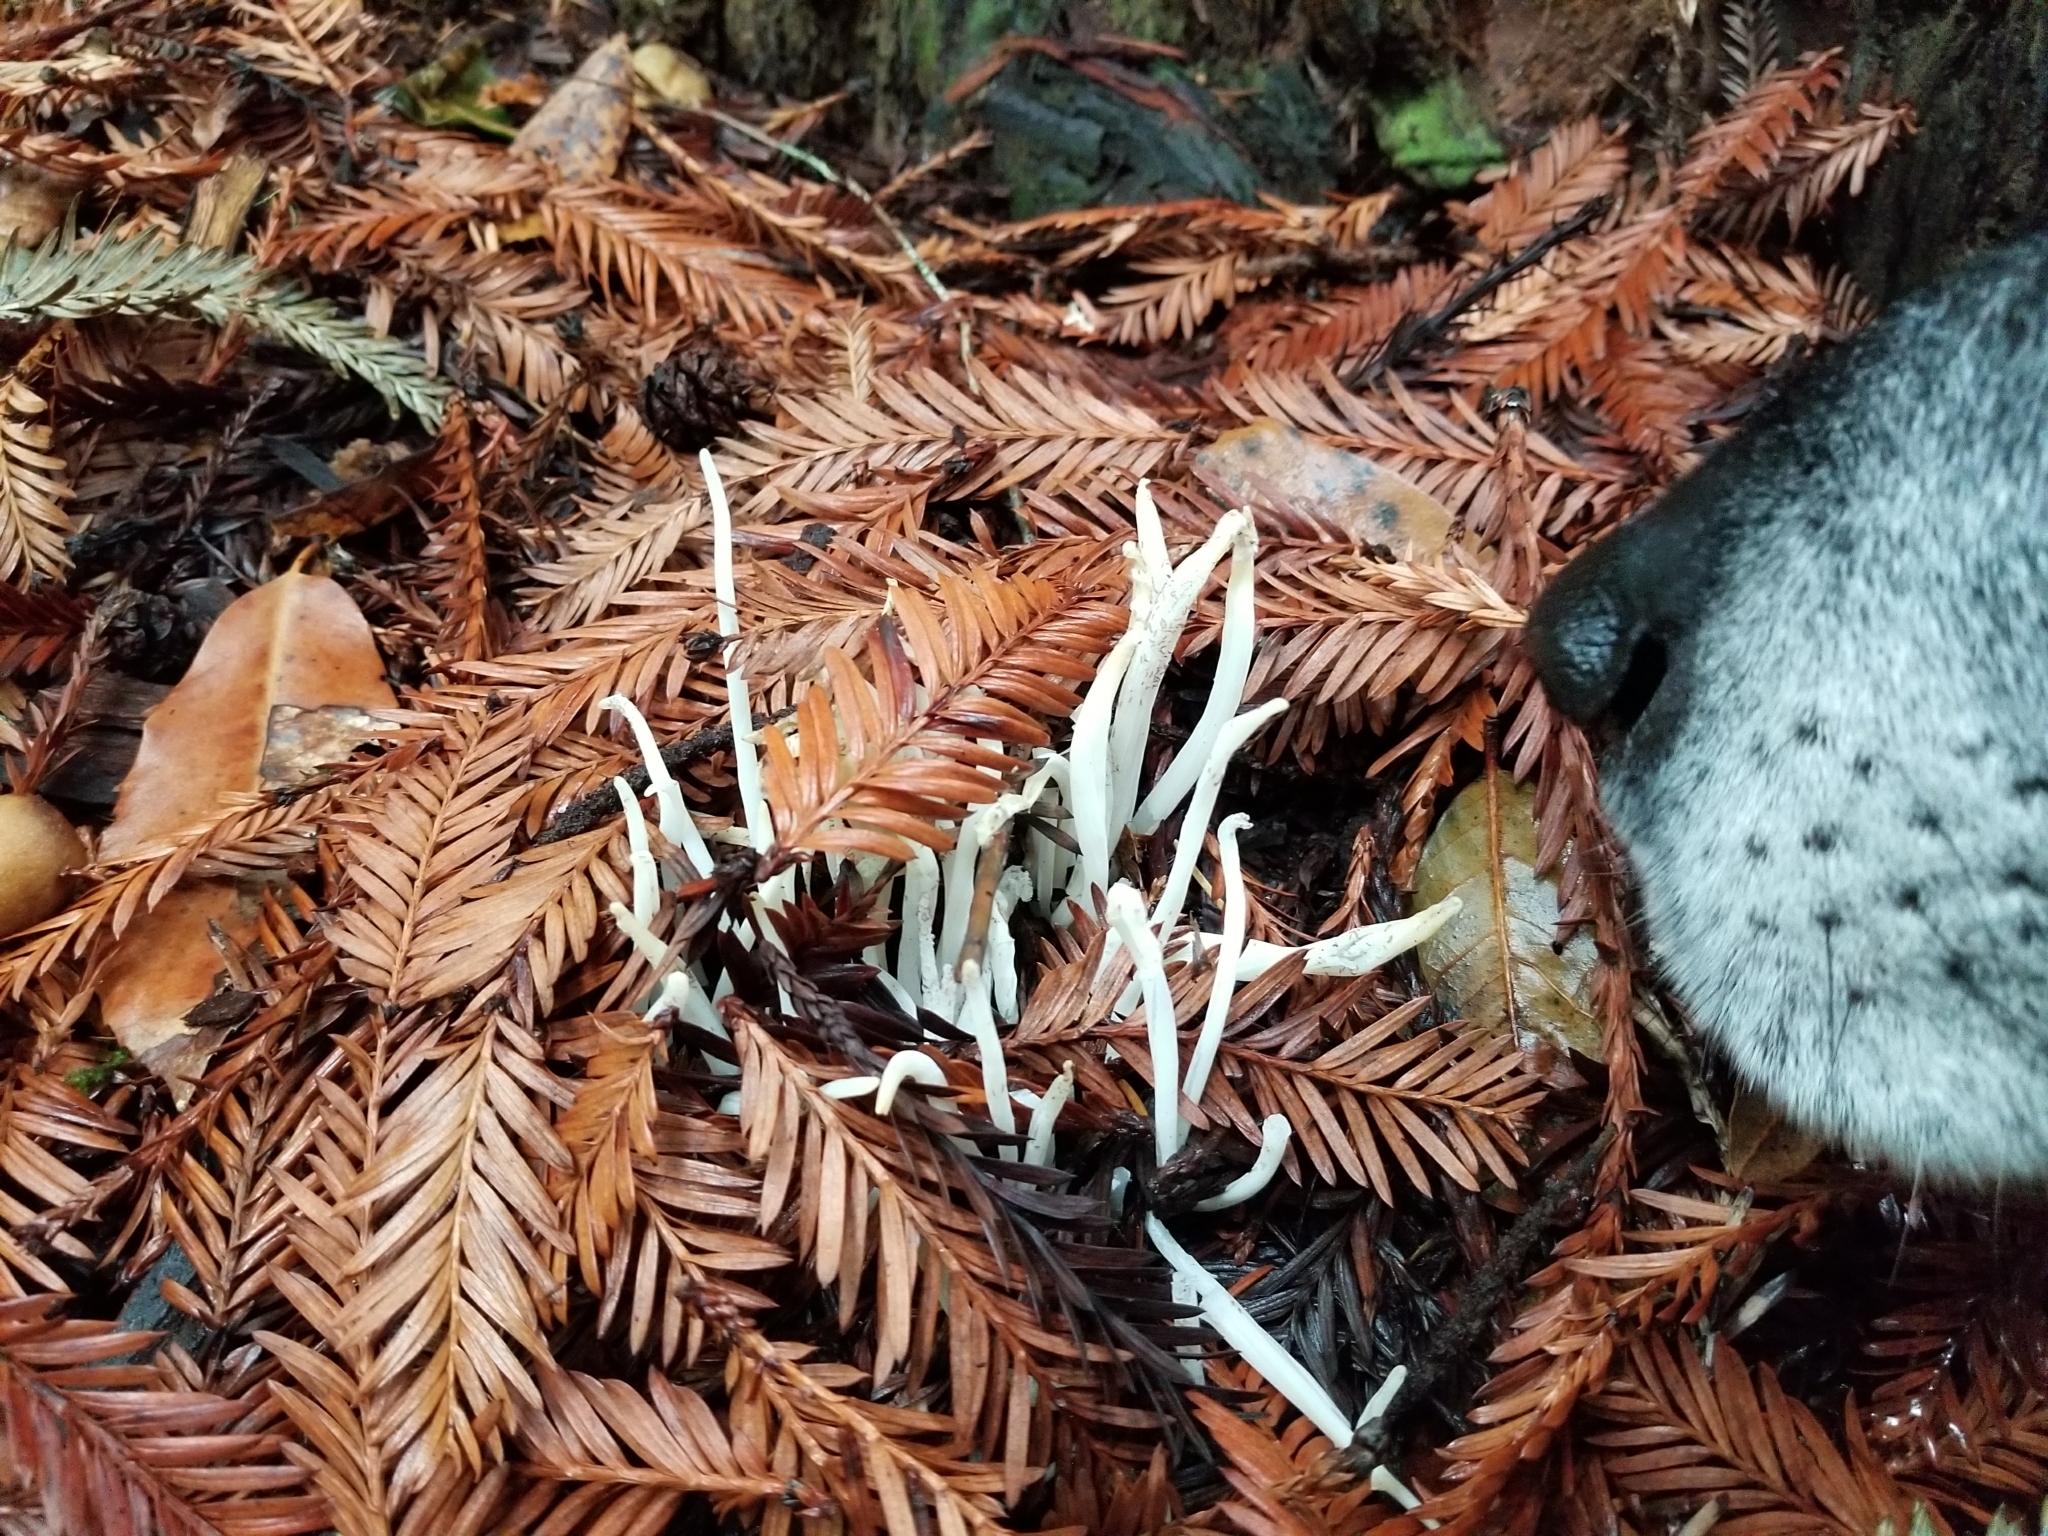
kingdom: Fungi
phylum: Basidiomycota
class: Agaricomycetes
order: Agaricales
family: Clavariaceae
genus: Clavaria
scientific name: Clavaria fragilis
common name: White spindles
